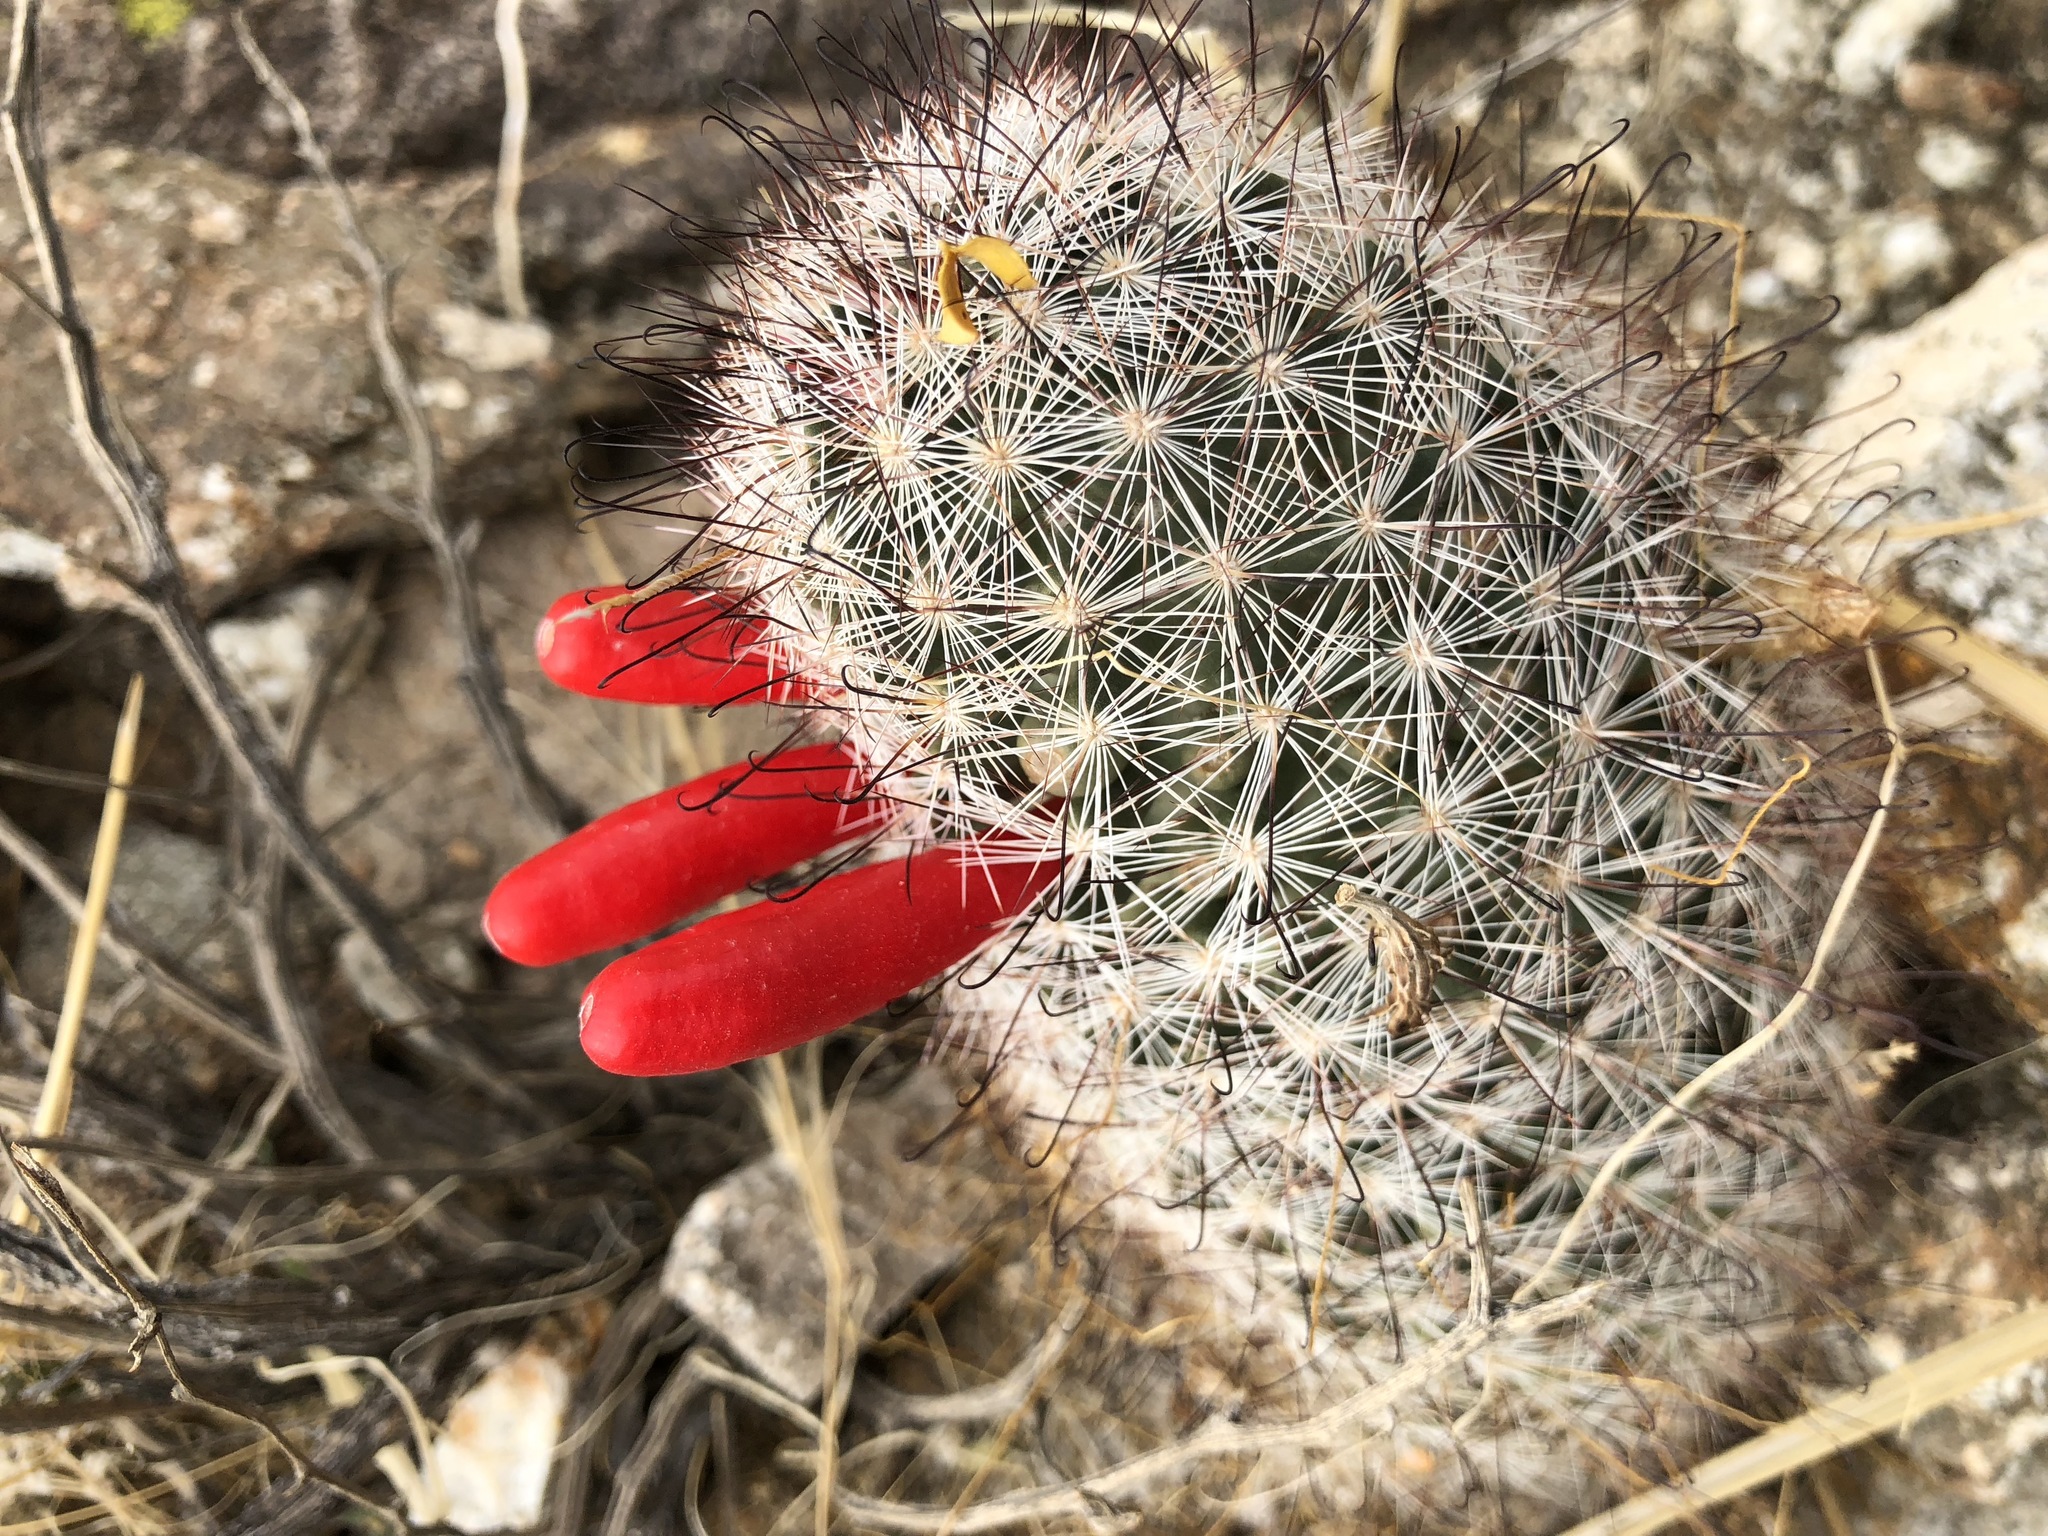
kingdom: Plantae
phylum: Tracheophyta
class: Magnoliopsida
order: Caryophyllales
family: Cactaceae
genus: Cochemiea
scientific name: Cochemiea tetrancistra
